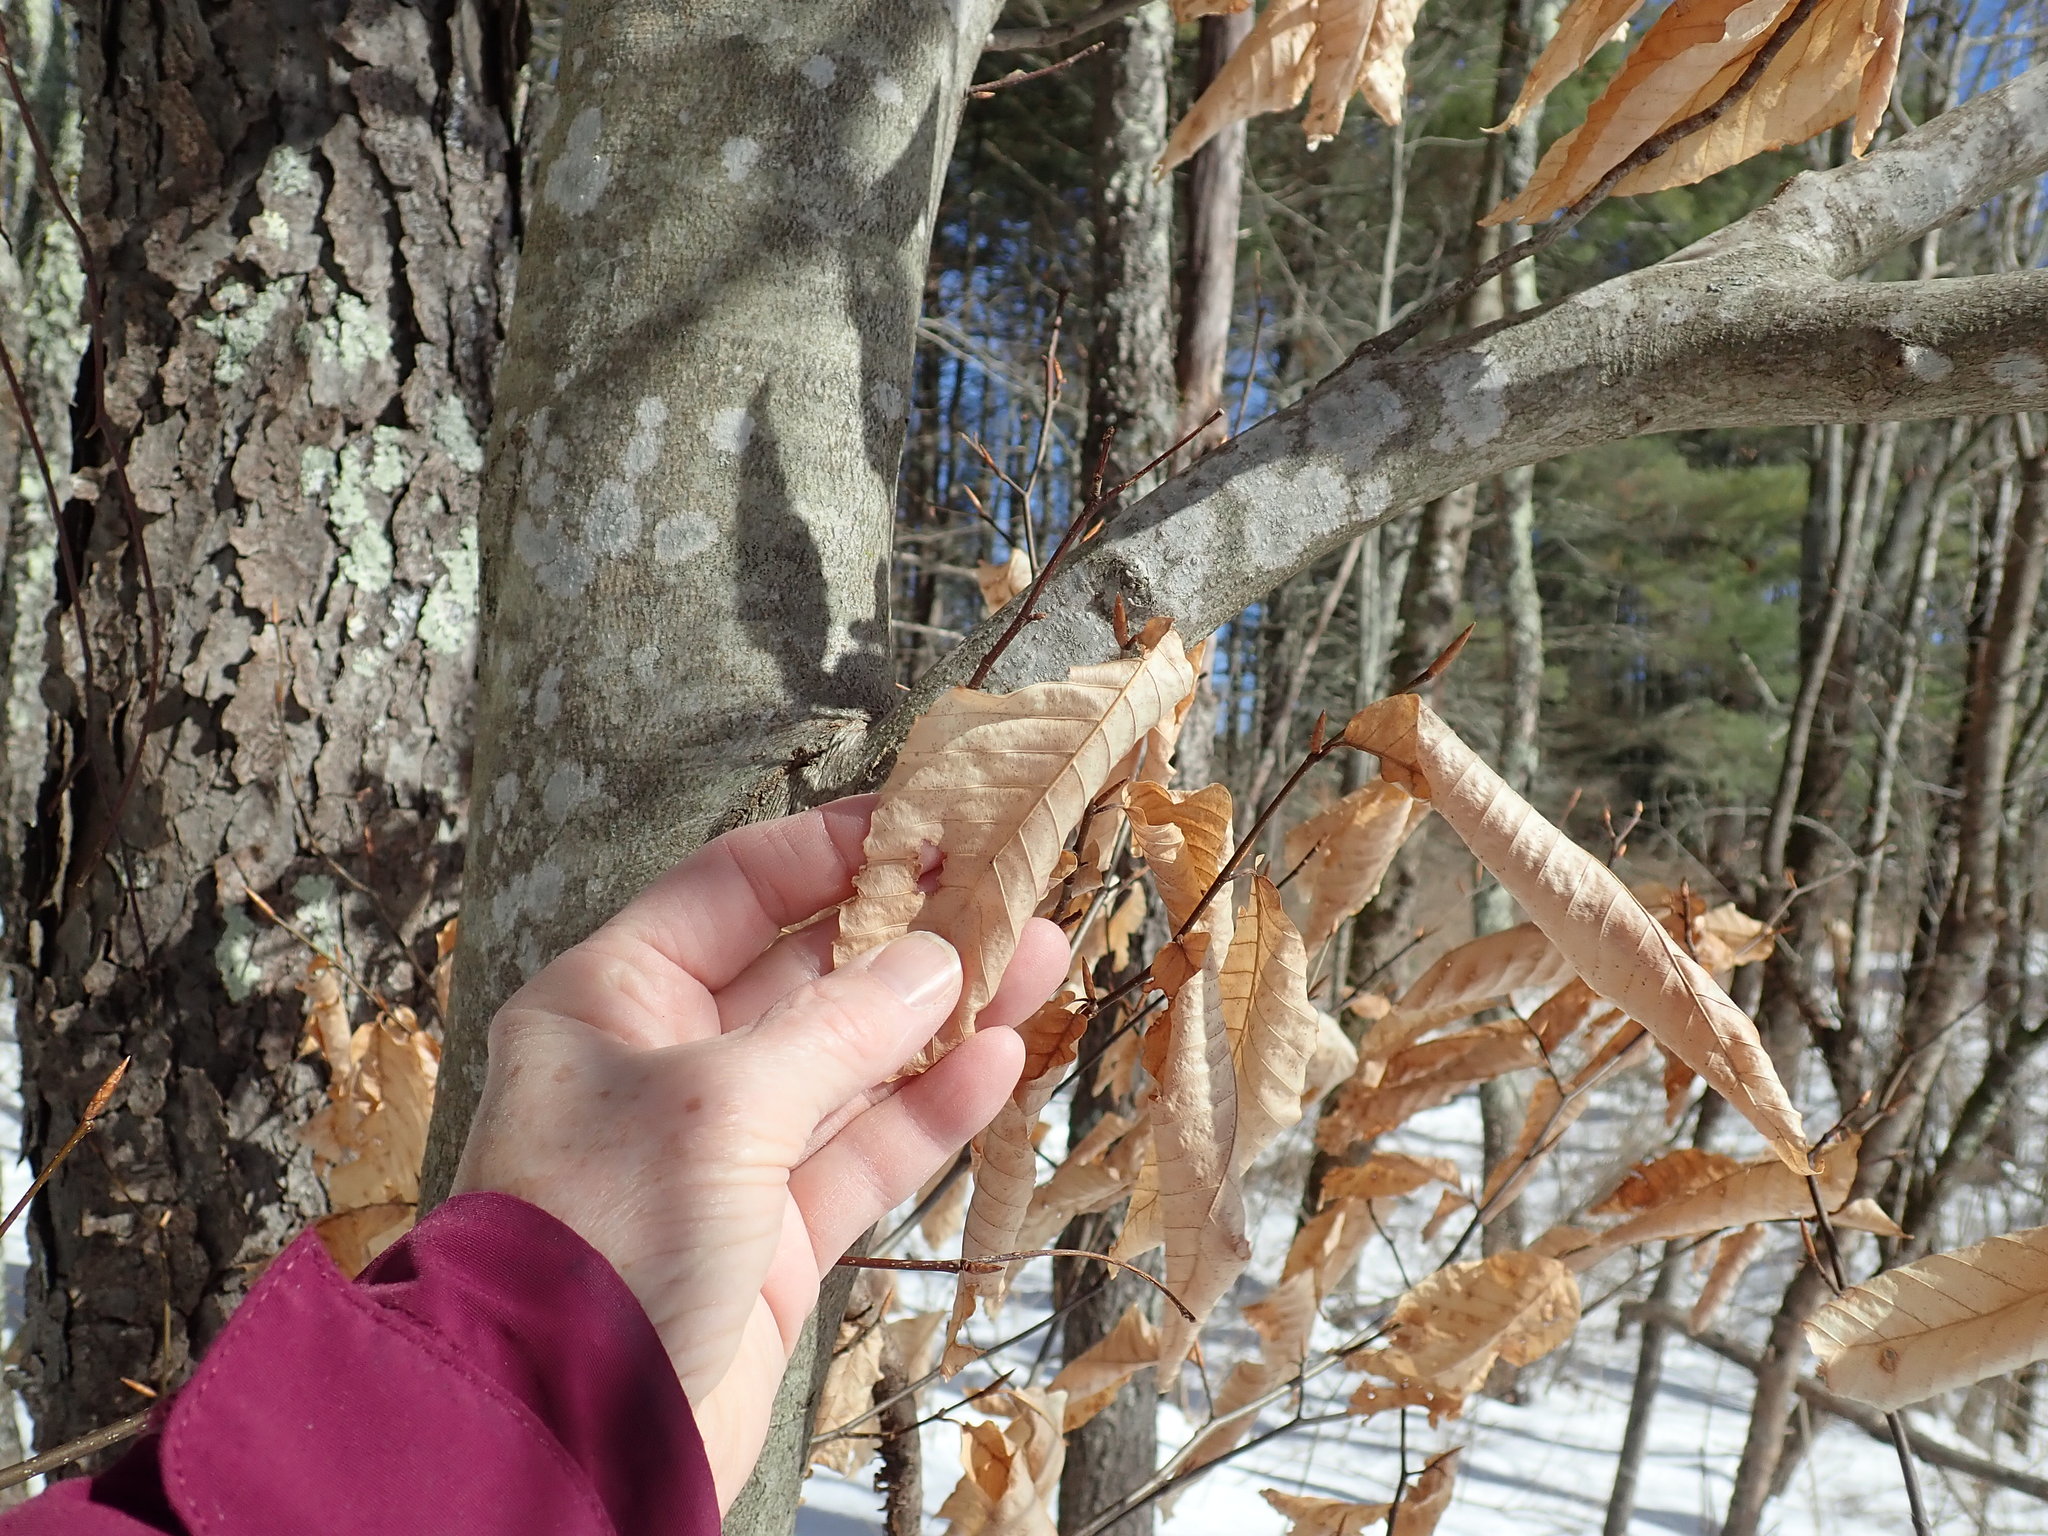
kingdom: Plantae
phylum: Tracheophyta
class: Magnoliopsida
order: Fagales
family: Fagaceae
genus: Fagus
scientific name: Fagus grandifolia
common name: American beech
